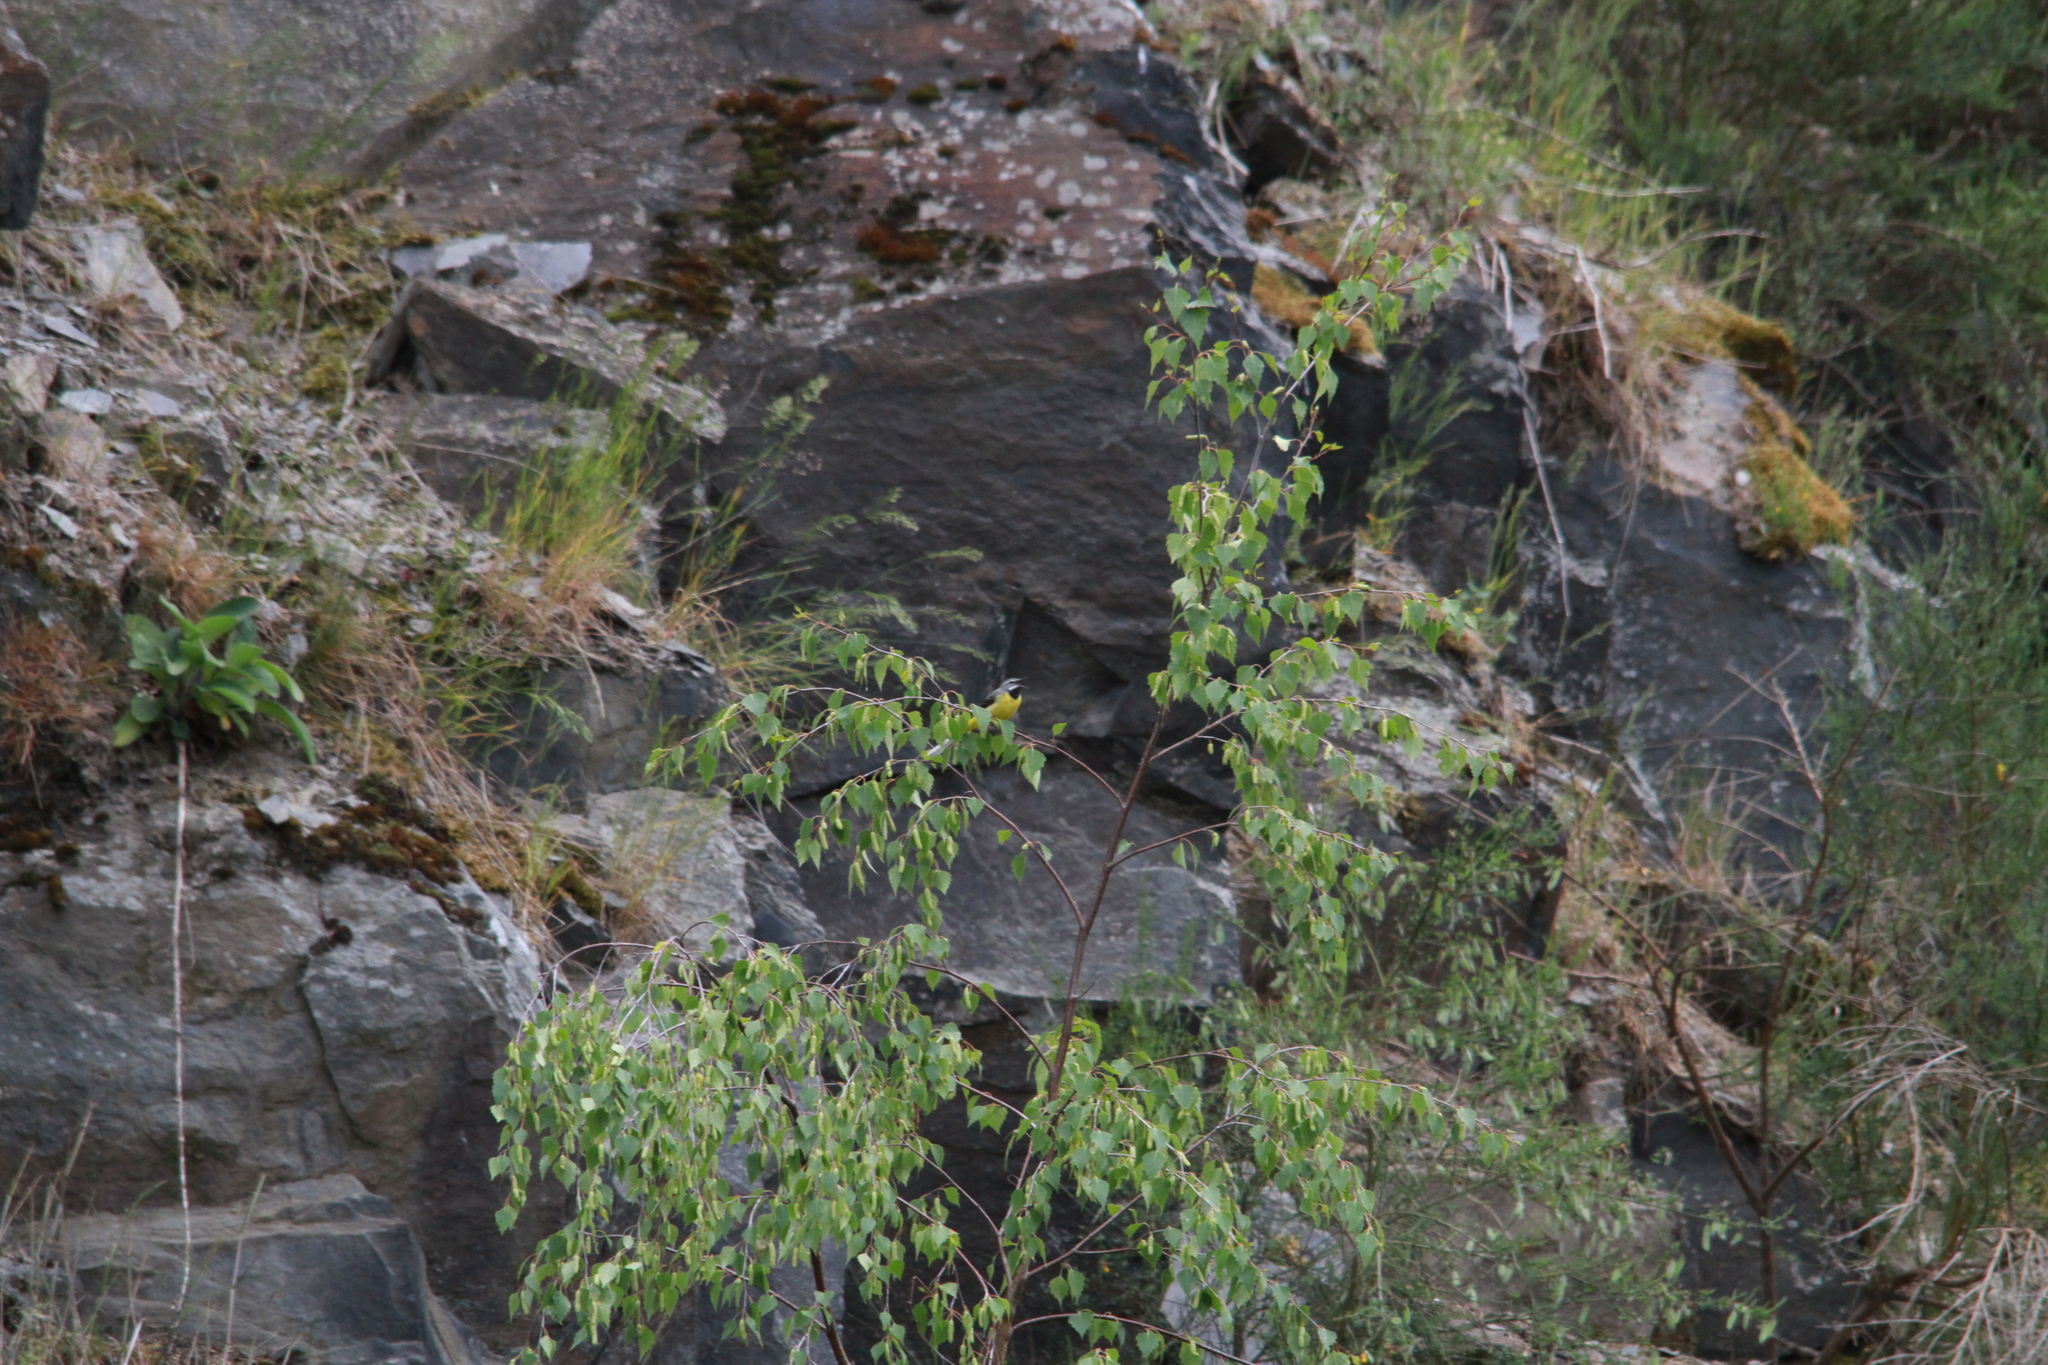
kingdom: Animalia
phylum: Chordata
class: Aves
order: Passeriformes
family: Motacillidae
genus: Motacilla
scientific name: Motacilla cinerea
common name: Grey wagtail
